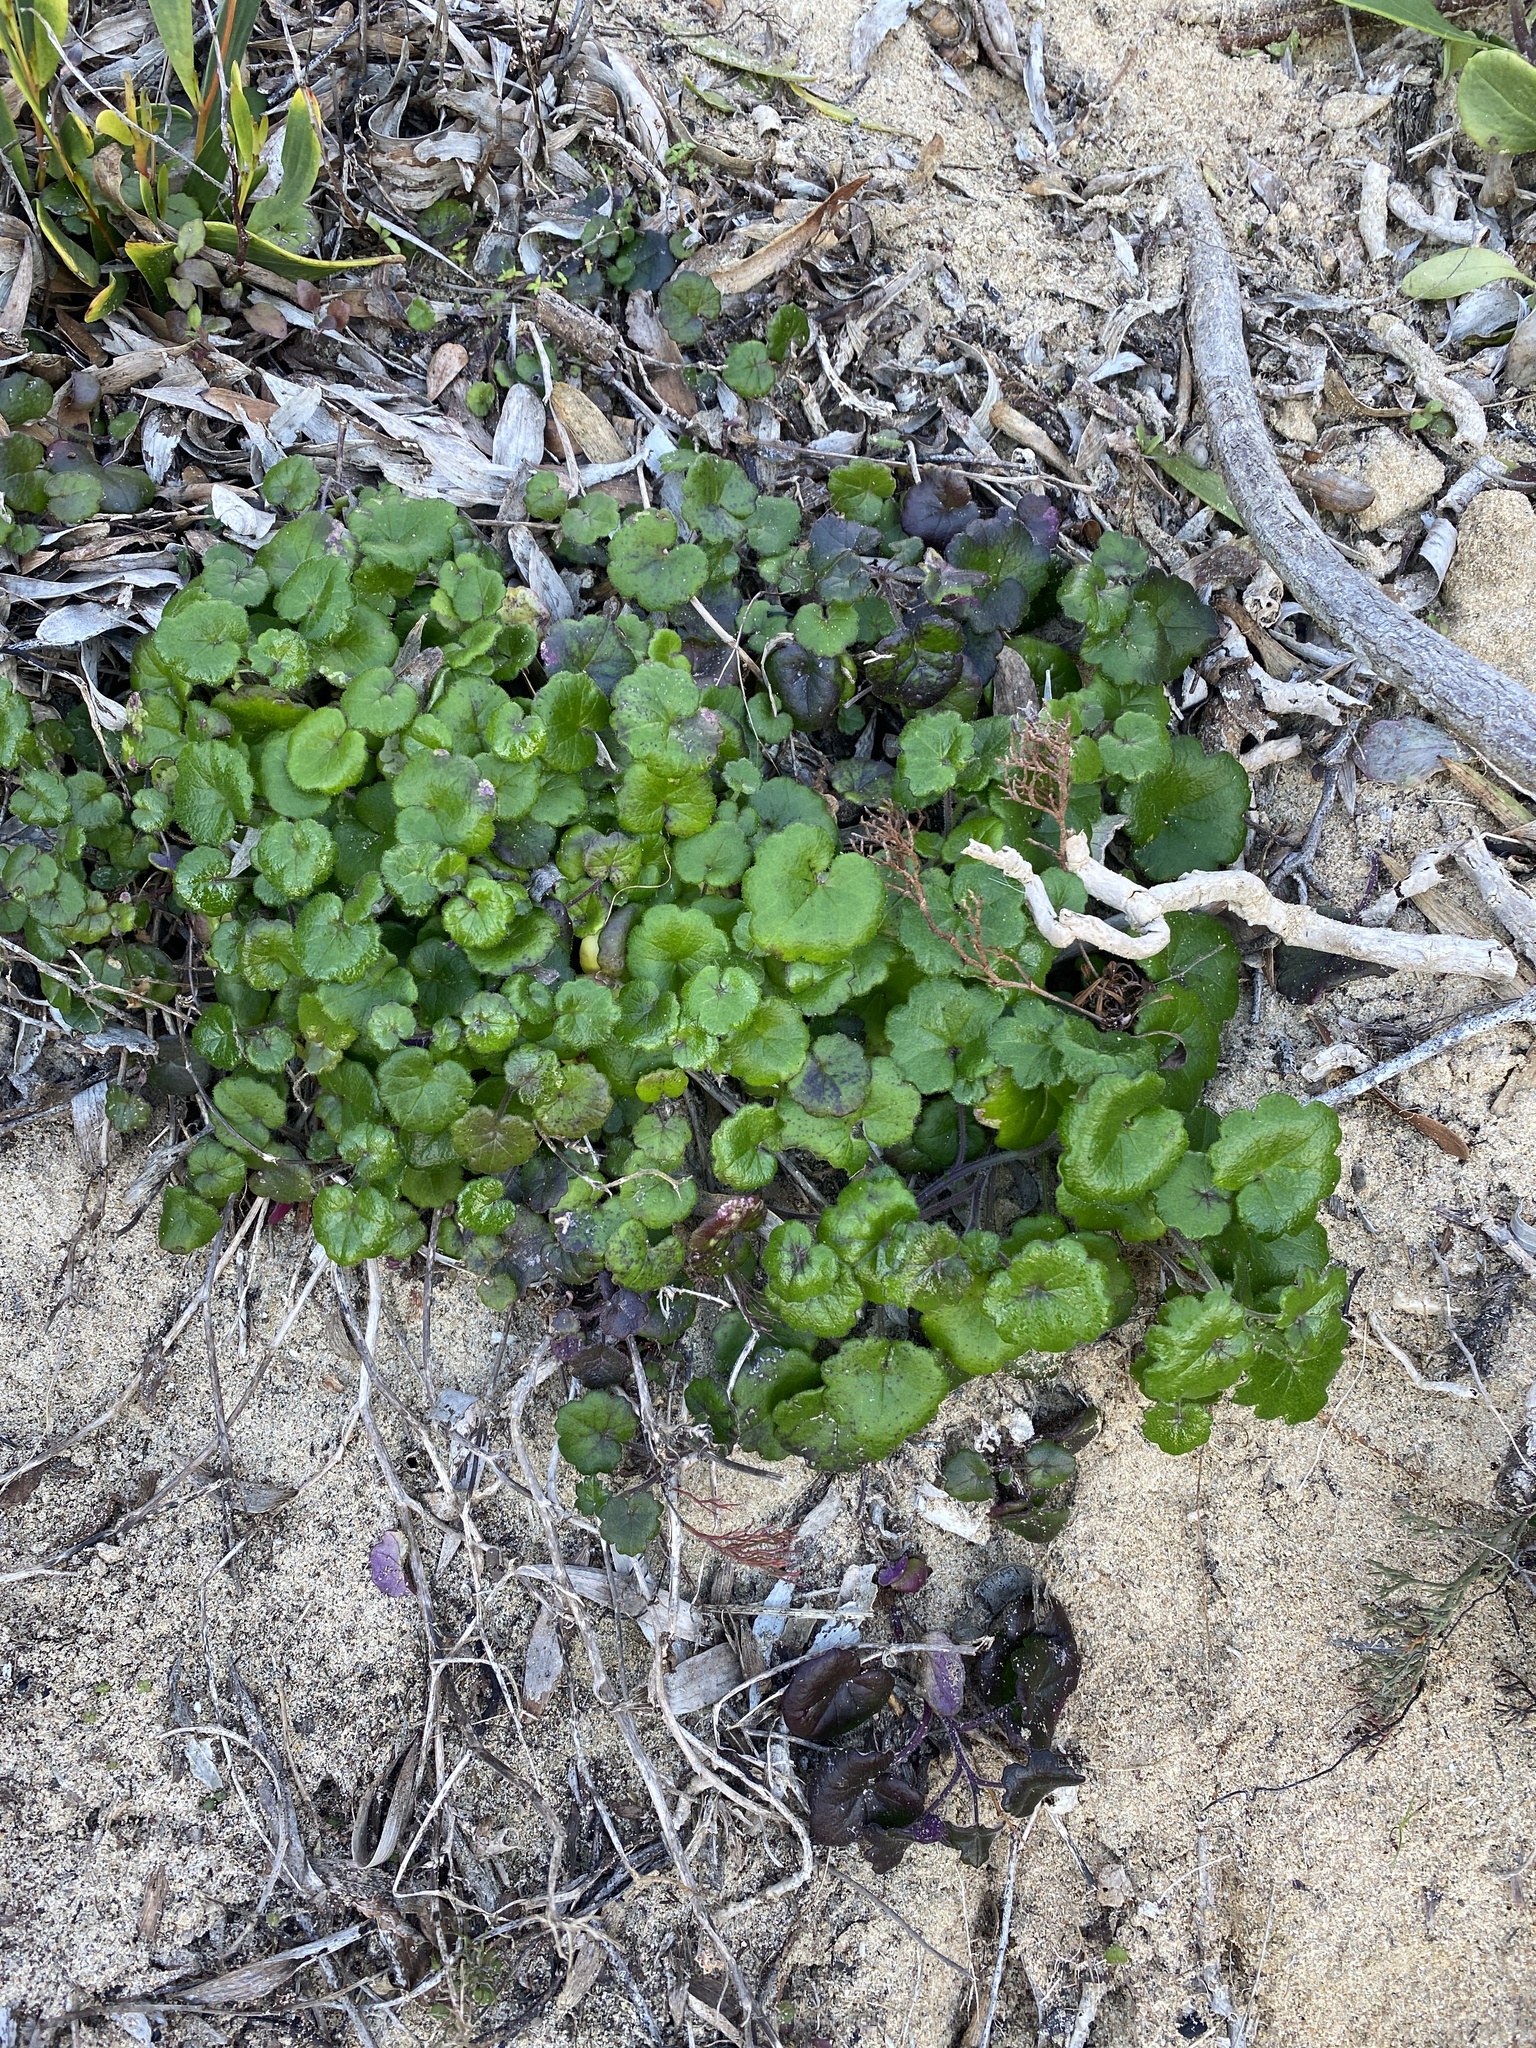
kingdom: Plantae
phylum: Tracheophyta
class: Magnoliopsida
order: Asterales
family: Asteraceae
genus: Cineraria
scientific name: Cineraria geifolia
